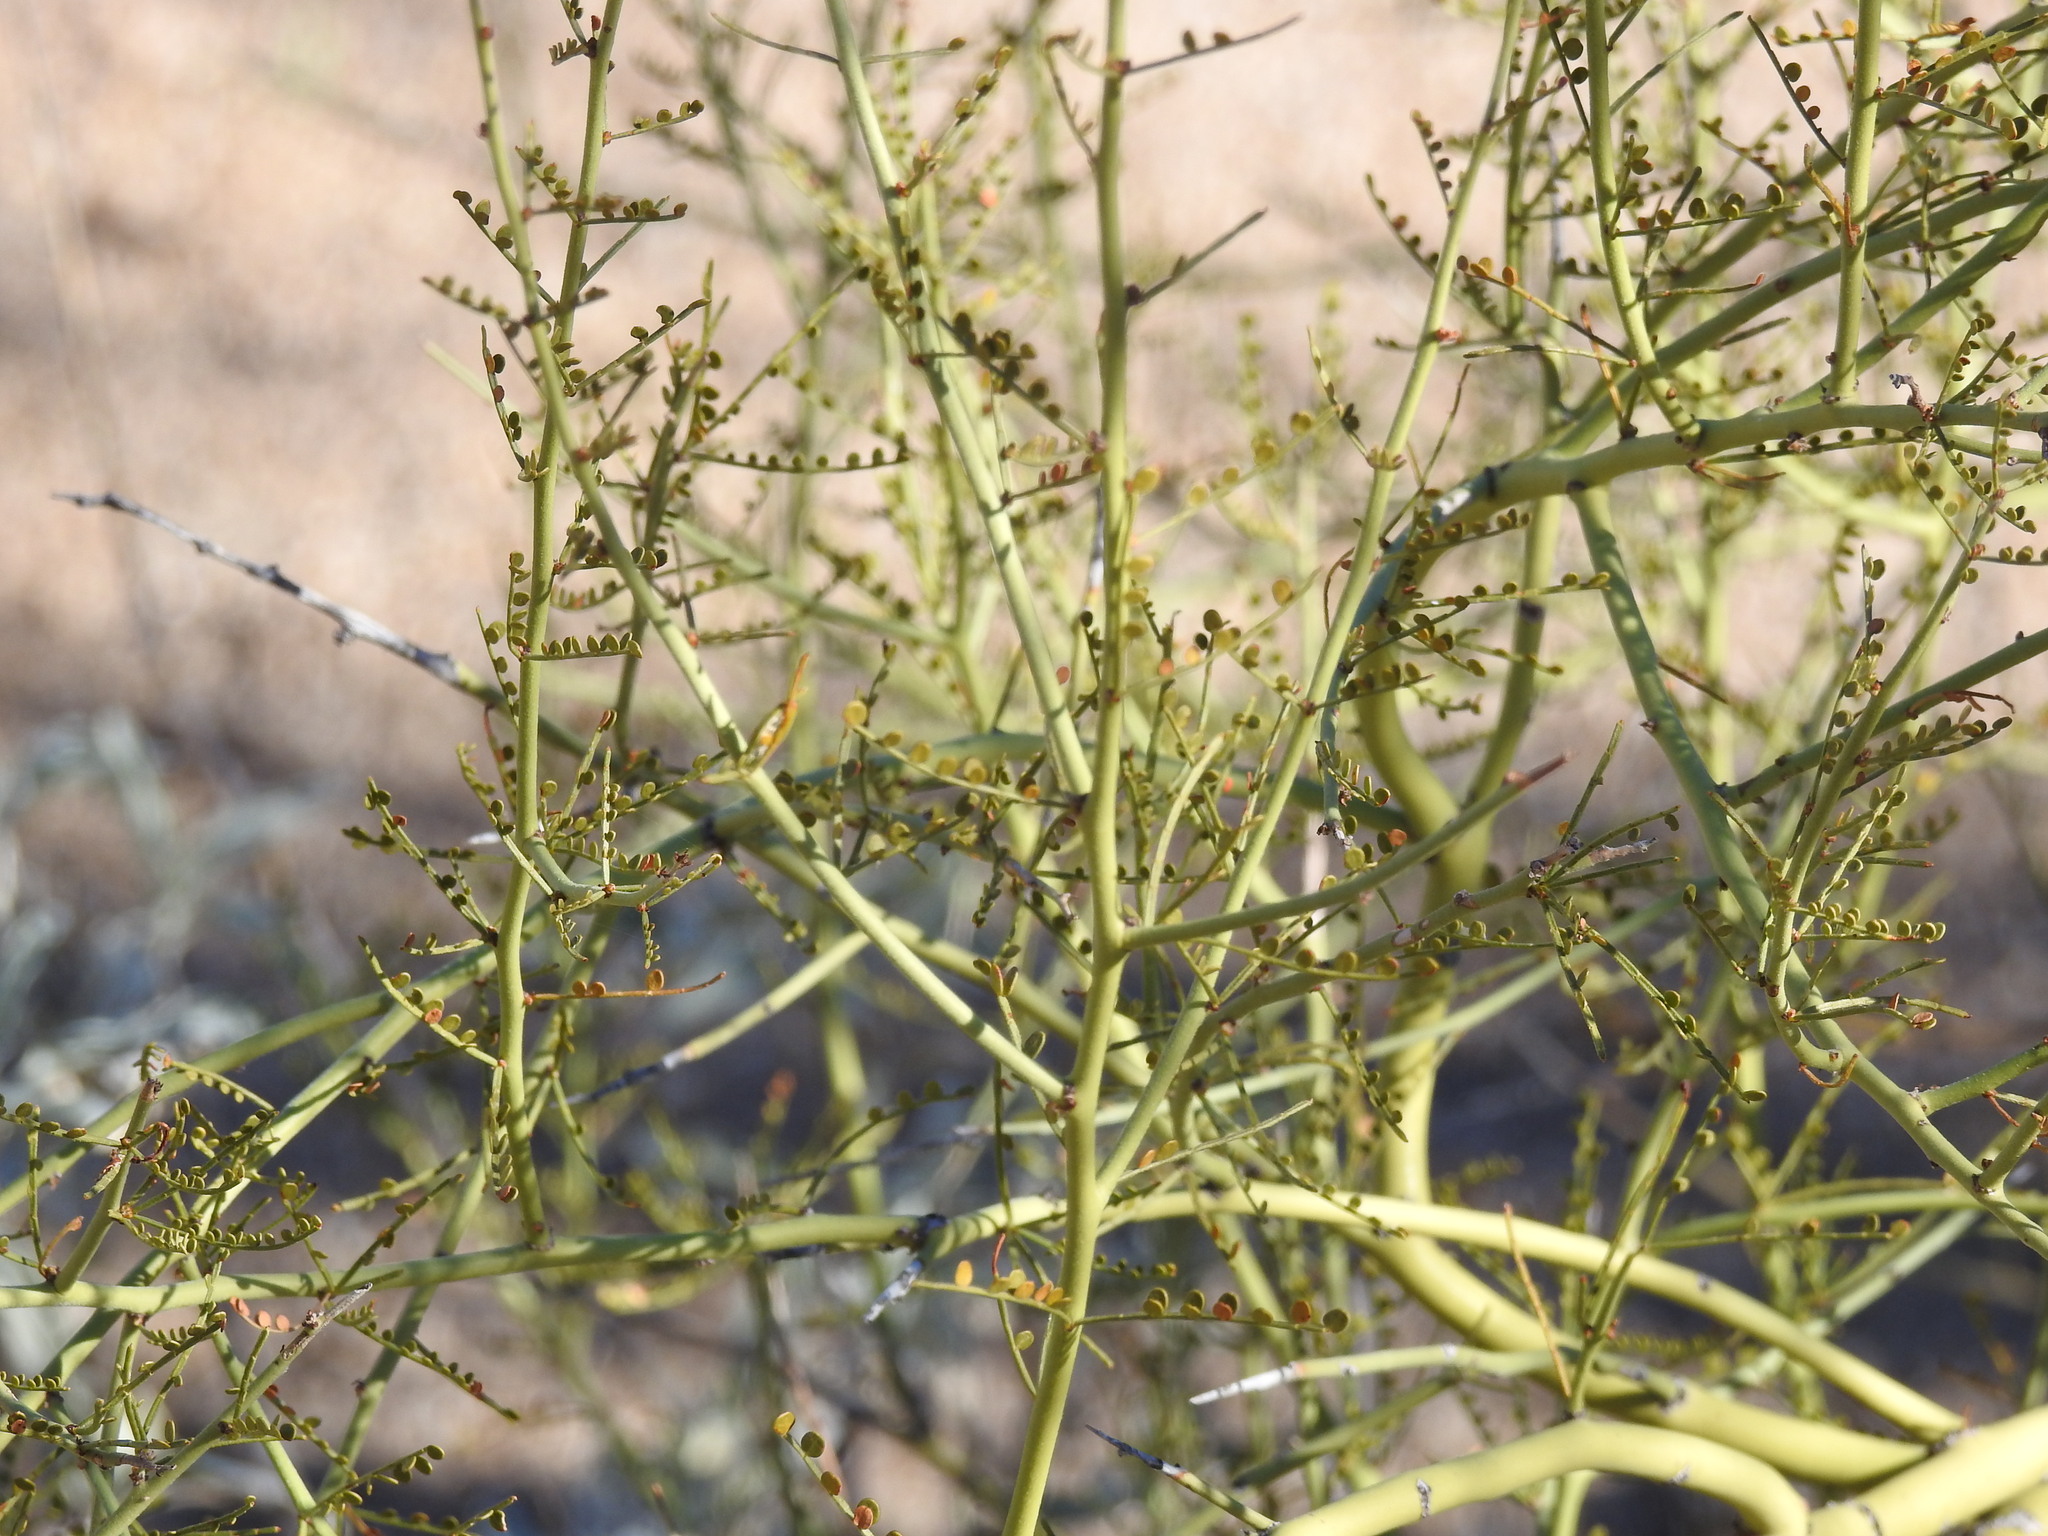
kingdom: Plantae
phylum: Tracheophyta
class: Magnoliopsida
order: Fabales
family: Fabaceae
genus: Parkinsonia
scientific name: Parkinsonia microphylla
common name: Yellow paloverde
